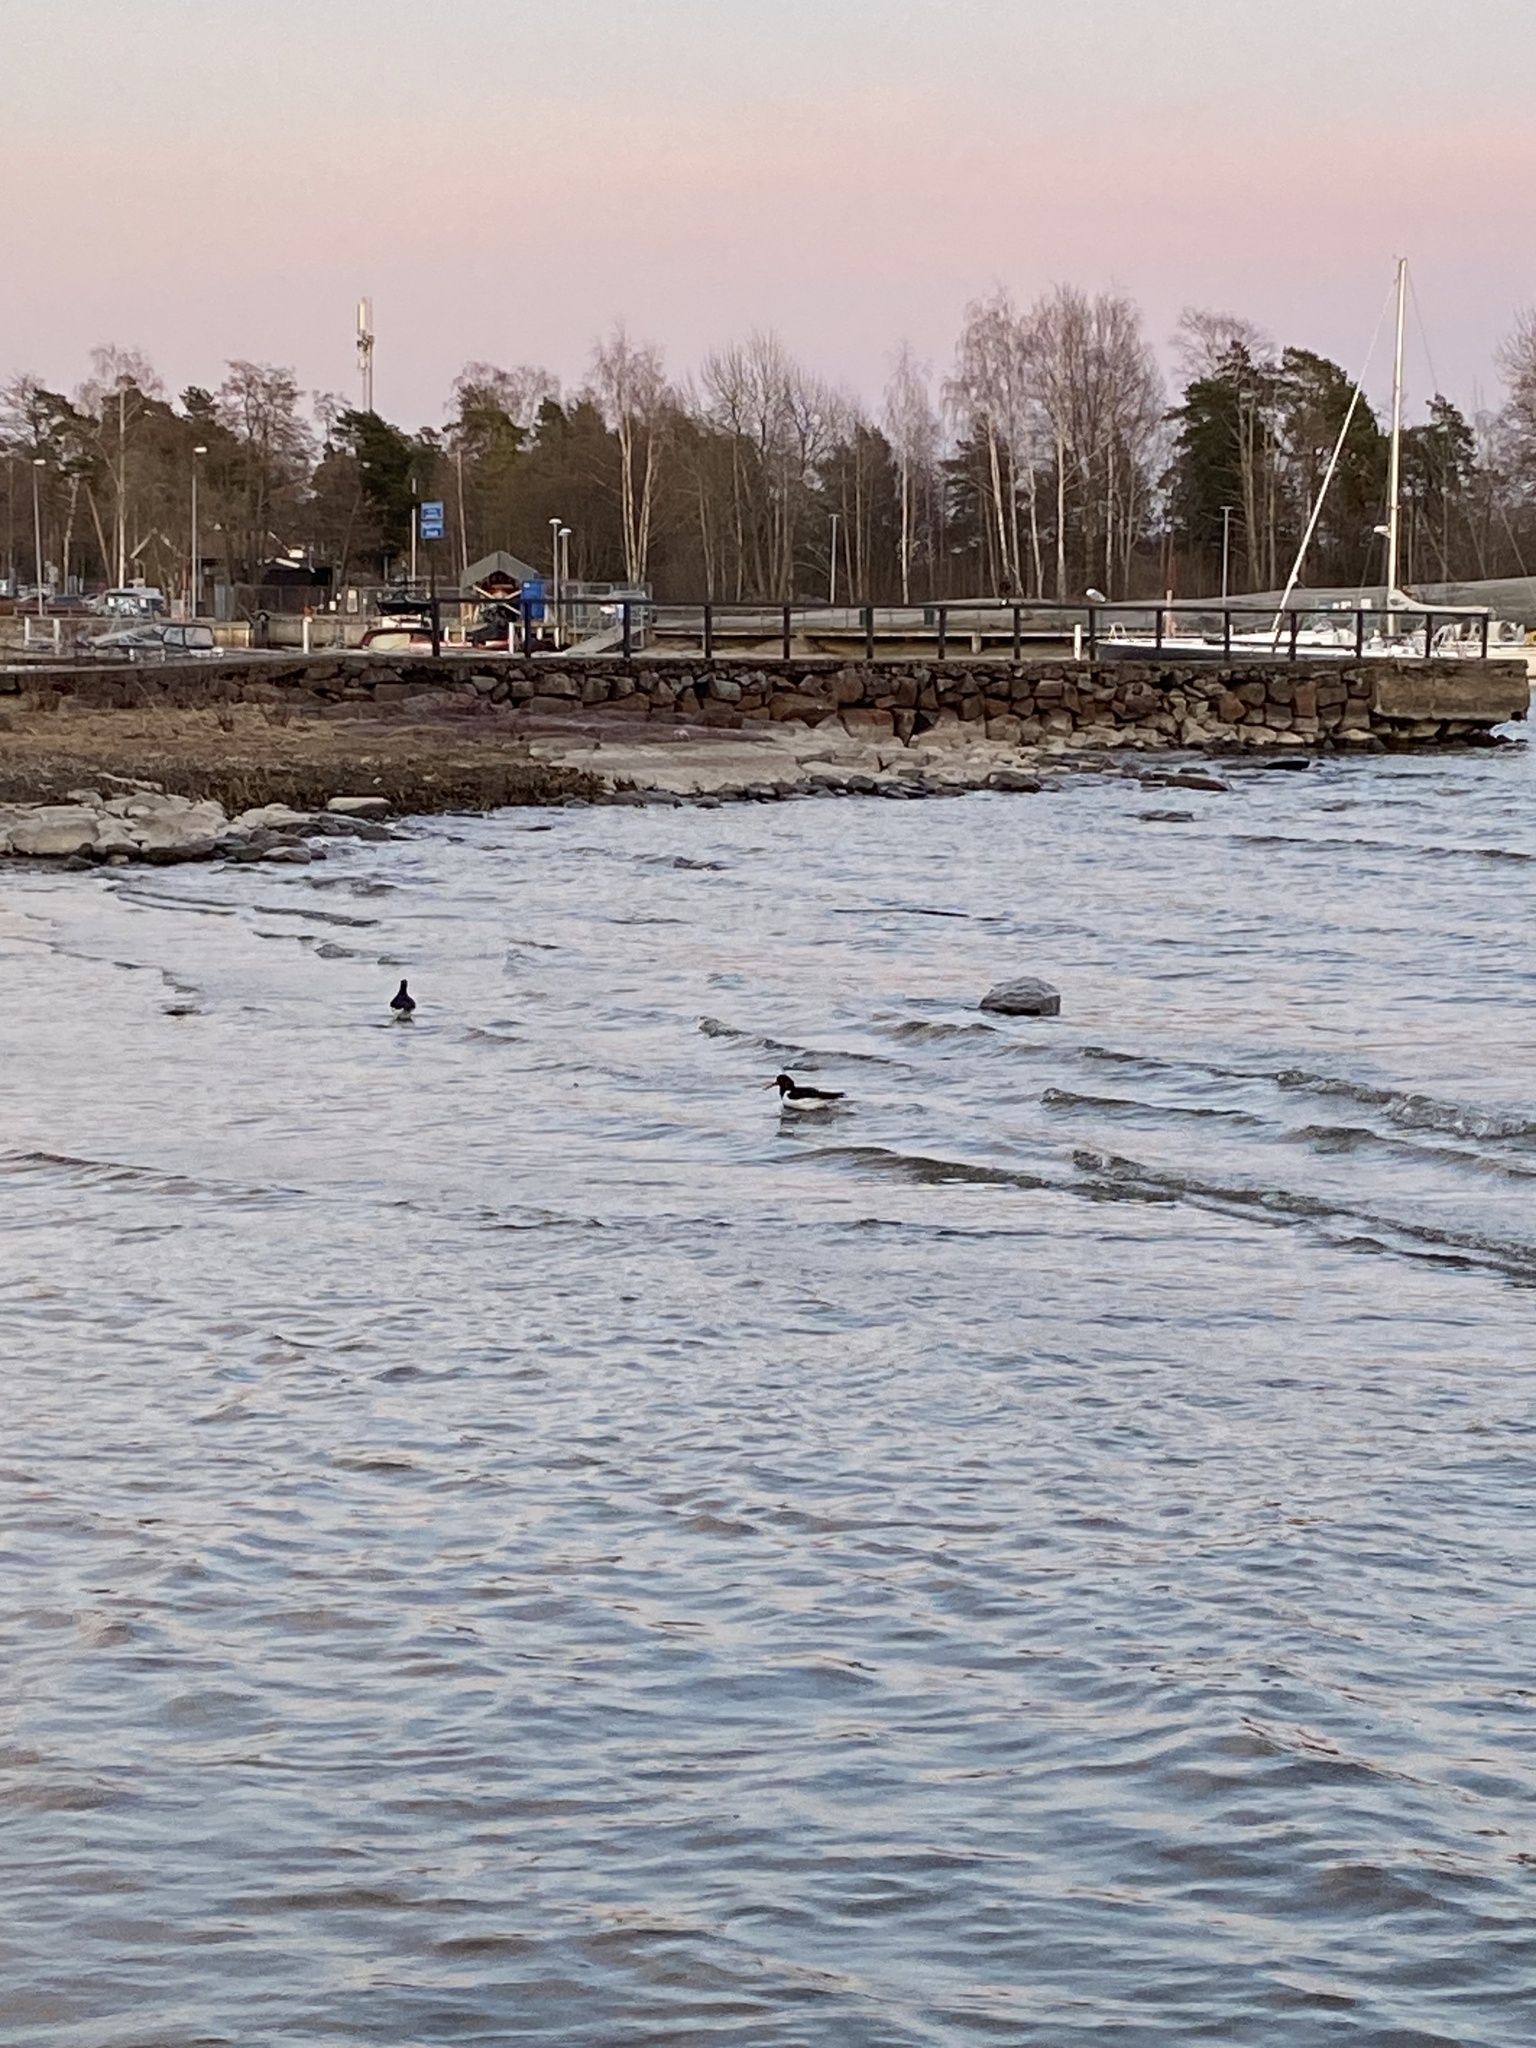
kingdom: Animalia
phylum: Chordata
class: Aves
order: Charadriiformes
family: Haematopodidae
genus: Haematopus
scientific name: Haematopus ostralegus
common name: Eurasian oystercatcher
